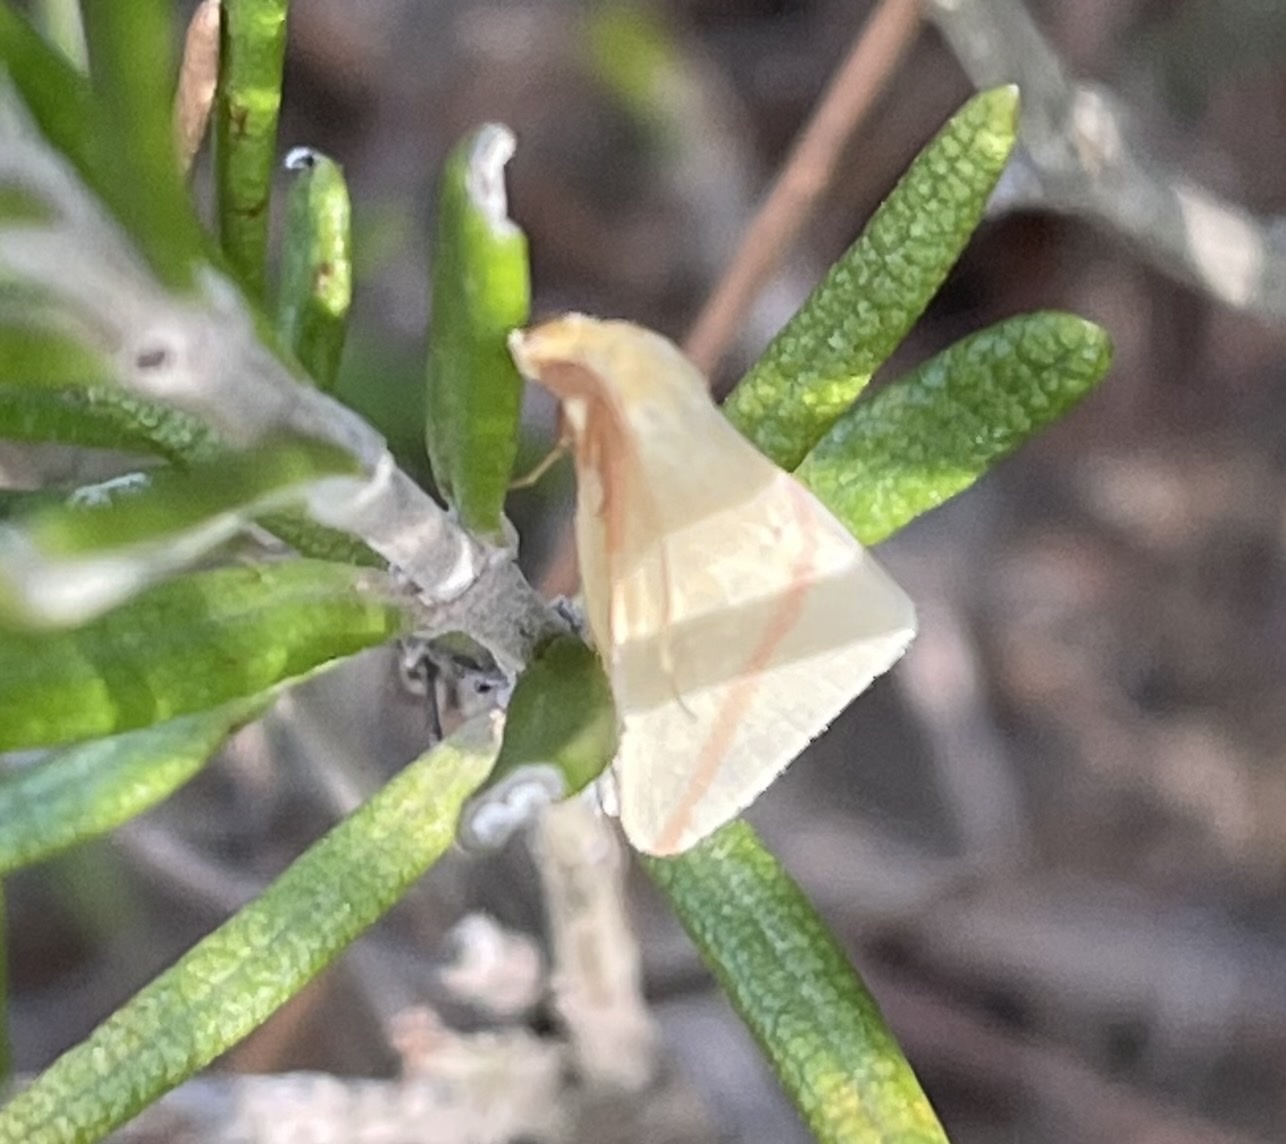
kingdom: Animalia
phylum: Arthropoda
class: Insecta
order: Lepidoptera
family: Geometridae
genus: Rhodometra
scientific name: Rhodometra sacraria
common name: Vestal
